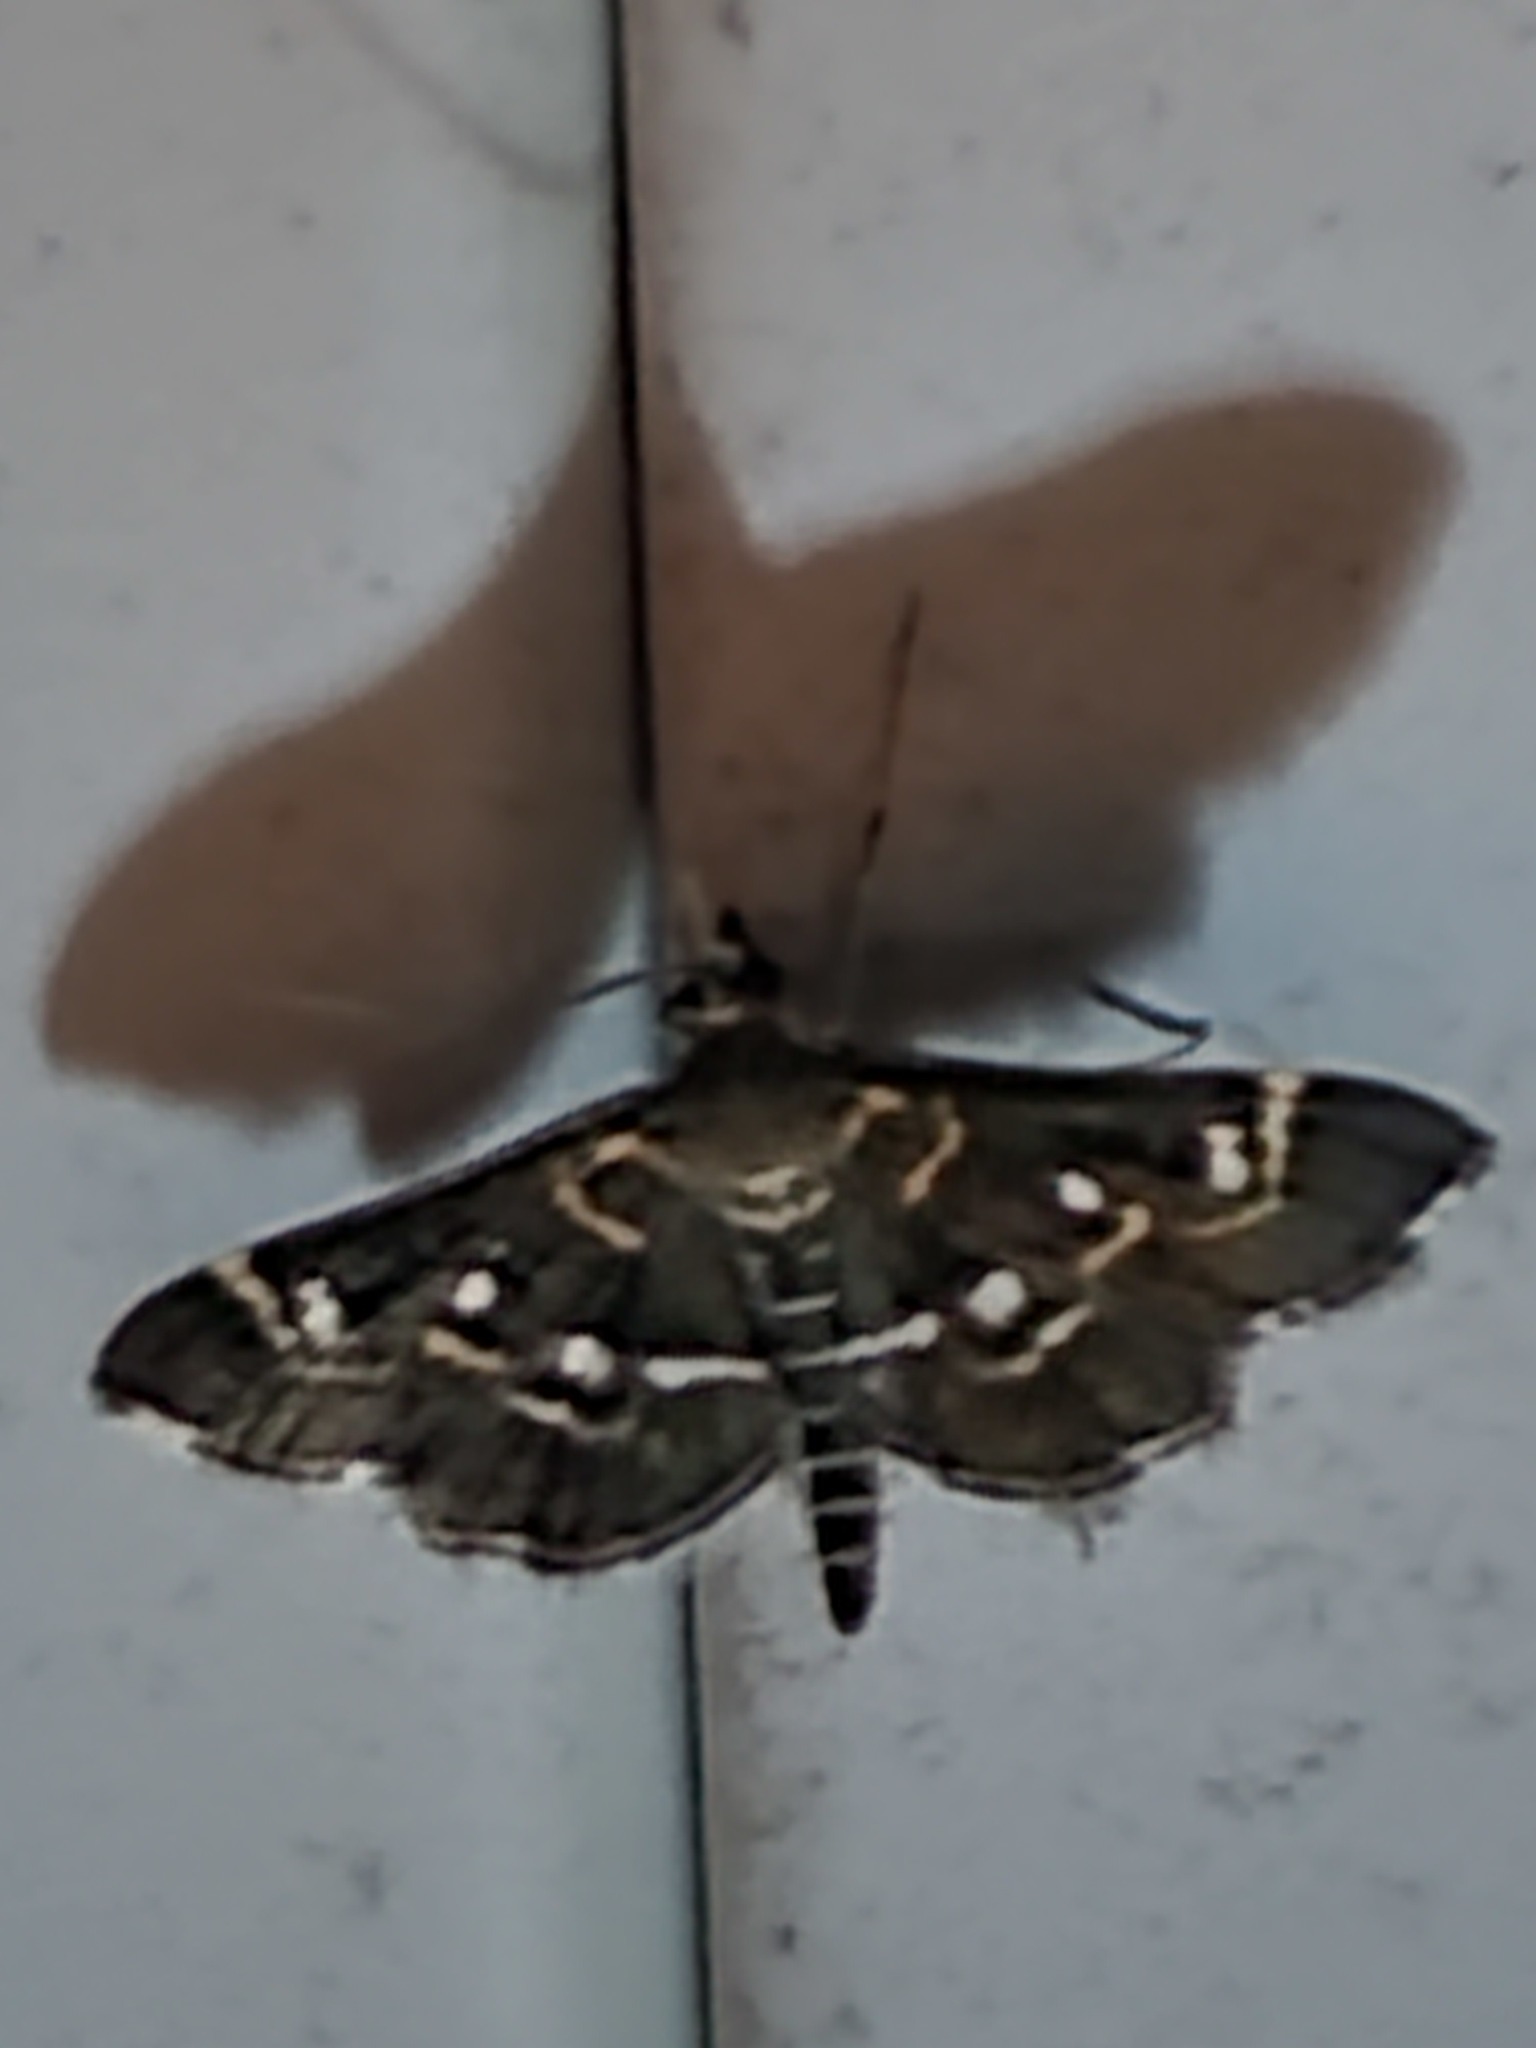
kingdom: Animalia
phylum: Arthropoda
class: Insecta
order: Lepidoptera
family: Crambidae
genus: Diathrausta
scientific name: Diathrausta harlequinalis
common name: Harlequin webworm moth
